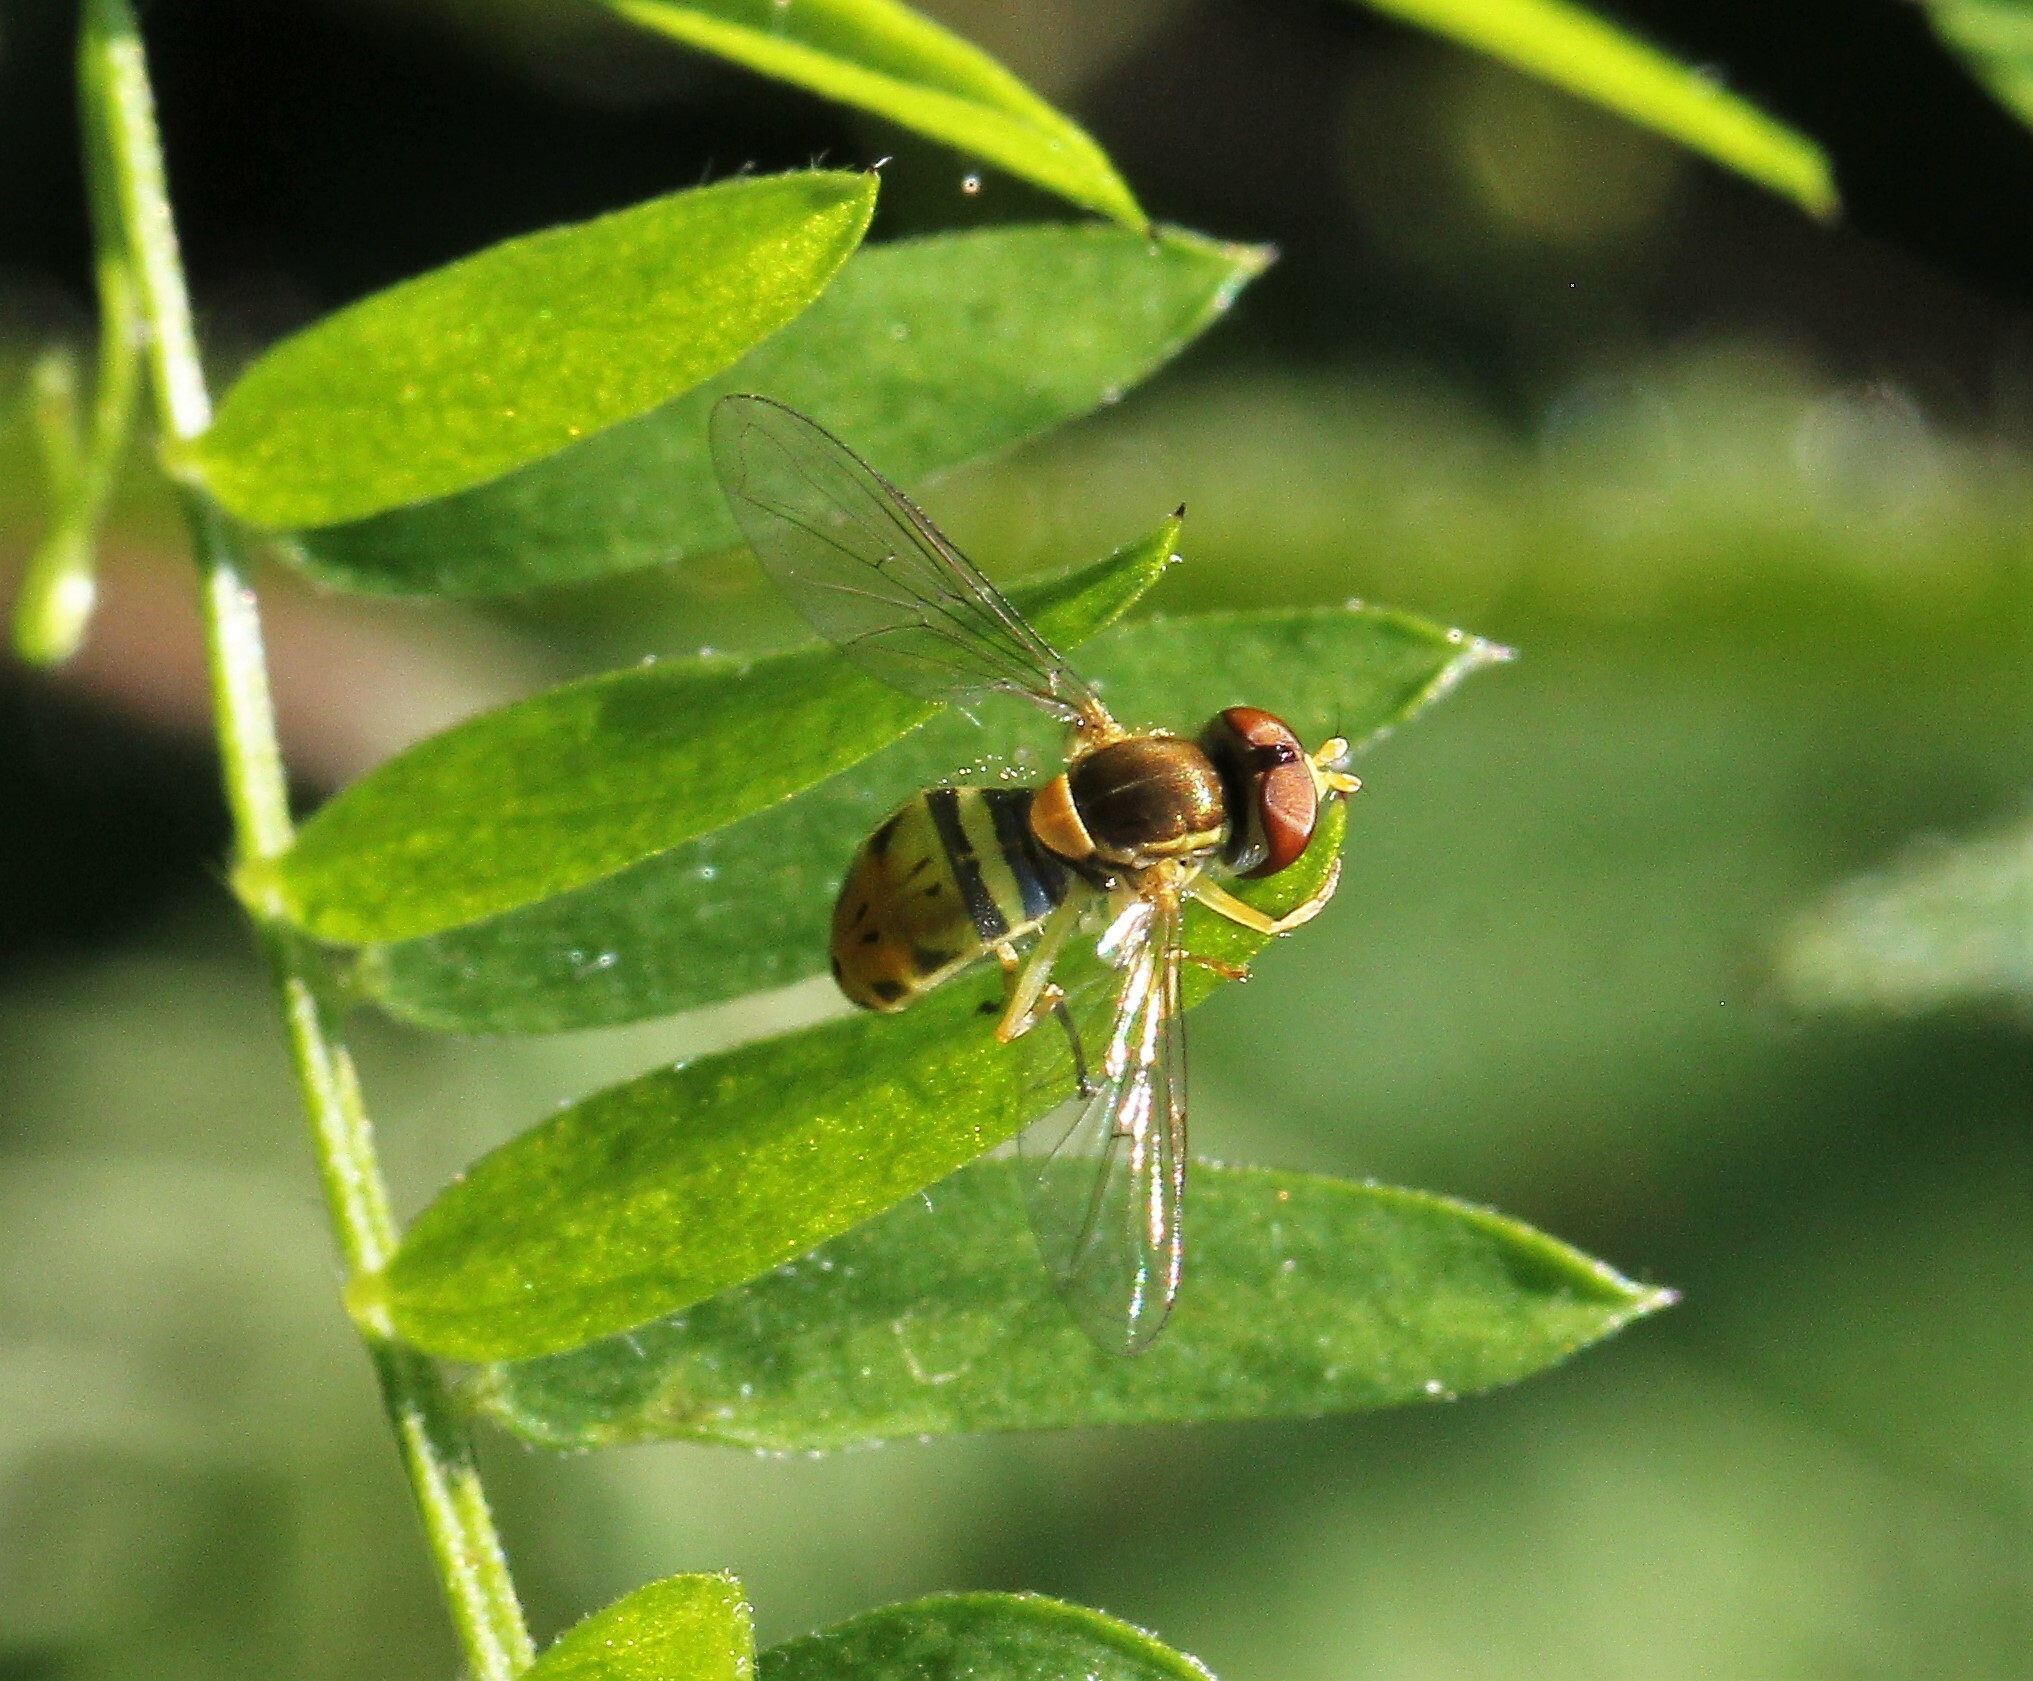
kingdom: Animalia
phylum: Arthropoda
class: Insecta
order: Diptera
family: Syrphidae
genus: Toxomerus
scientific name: Toxomerus marginatus
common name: Syrphid fly
